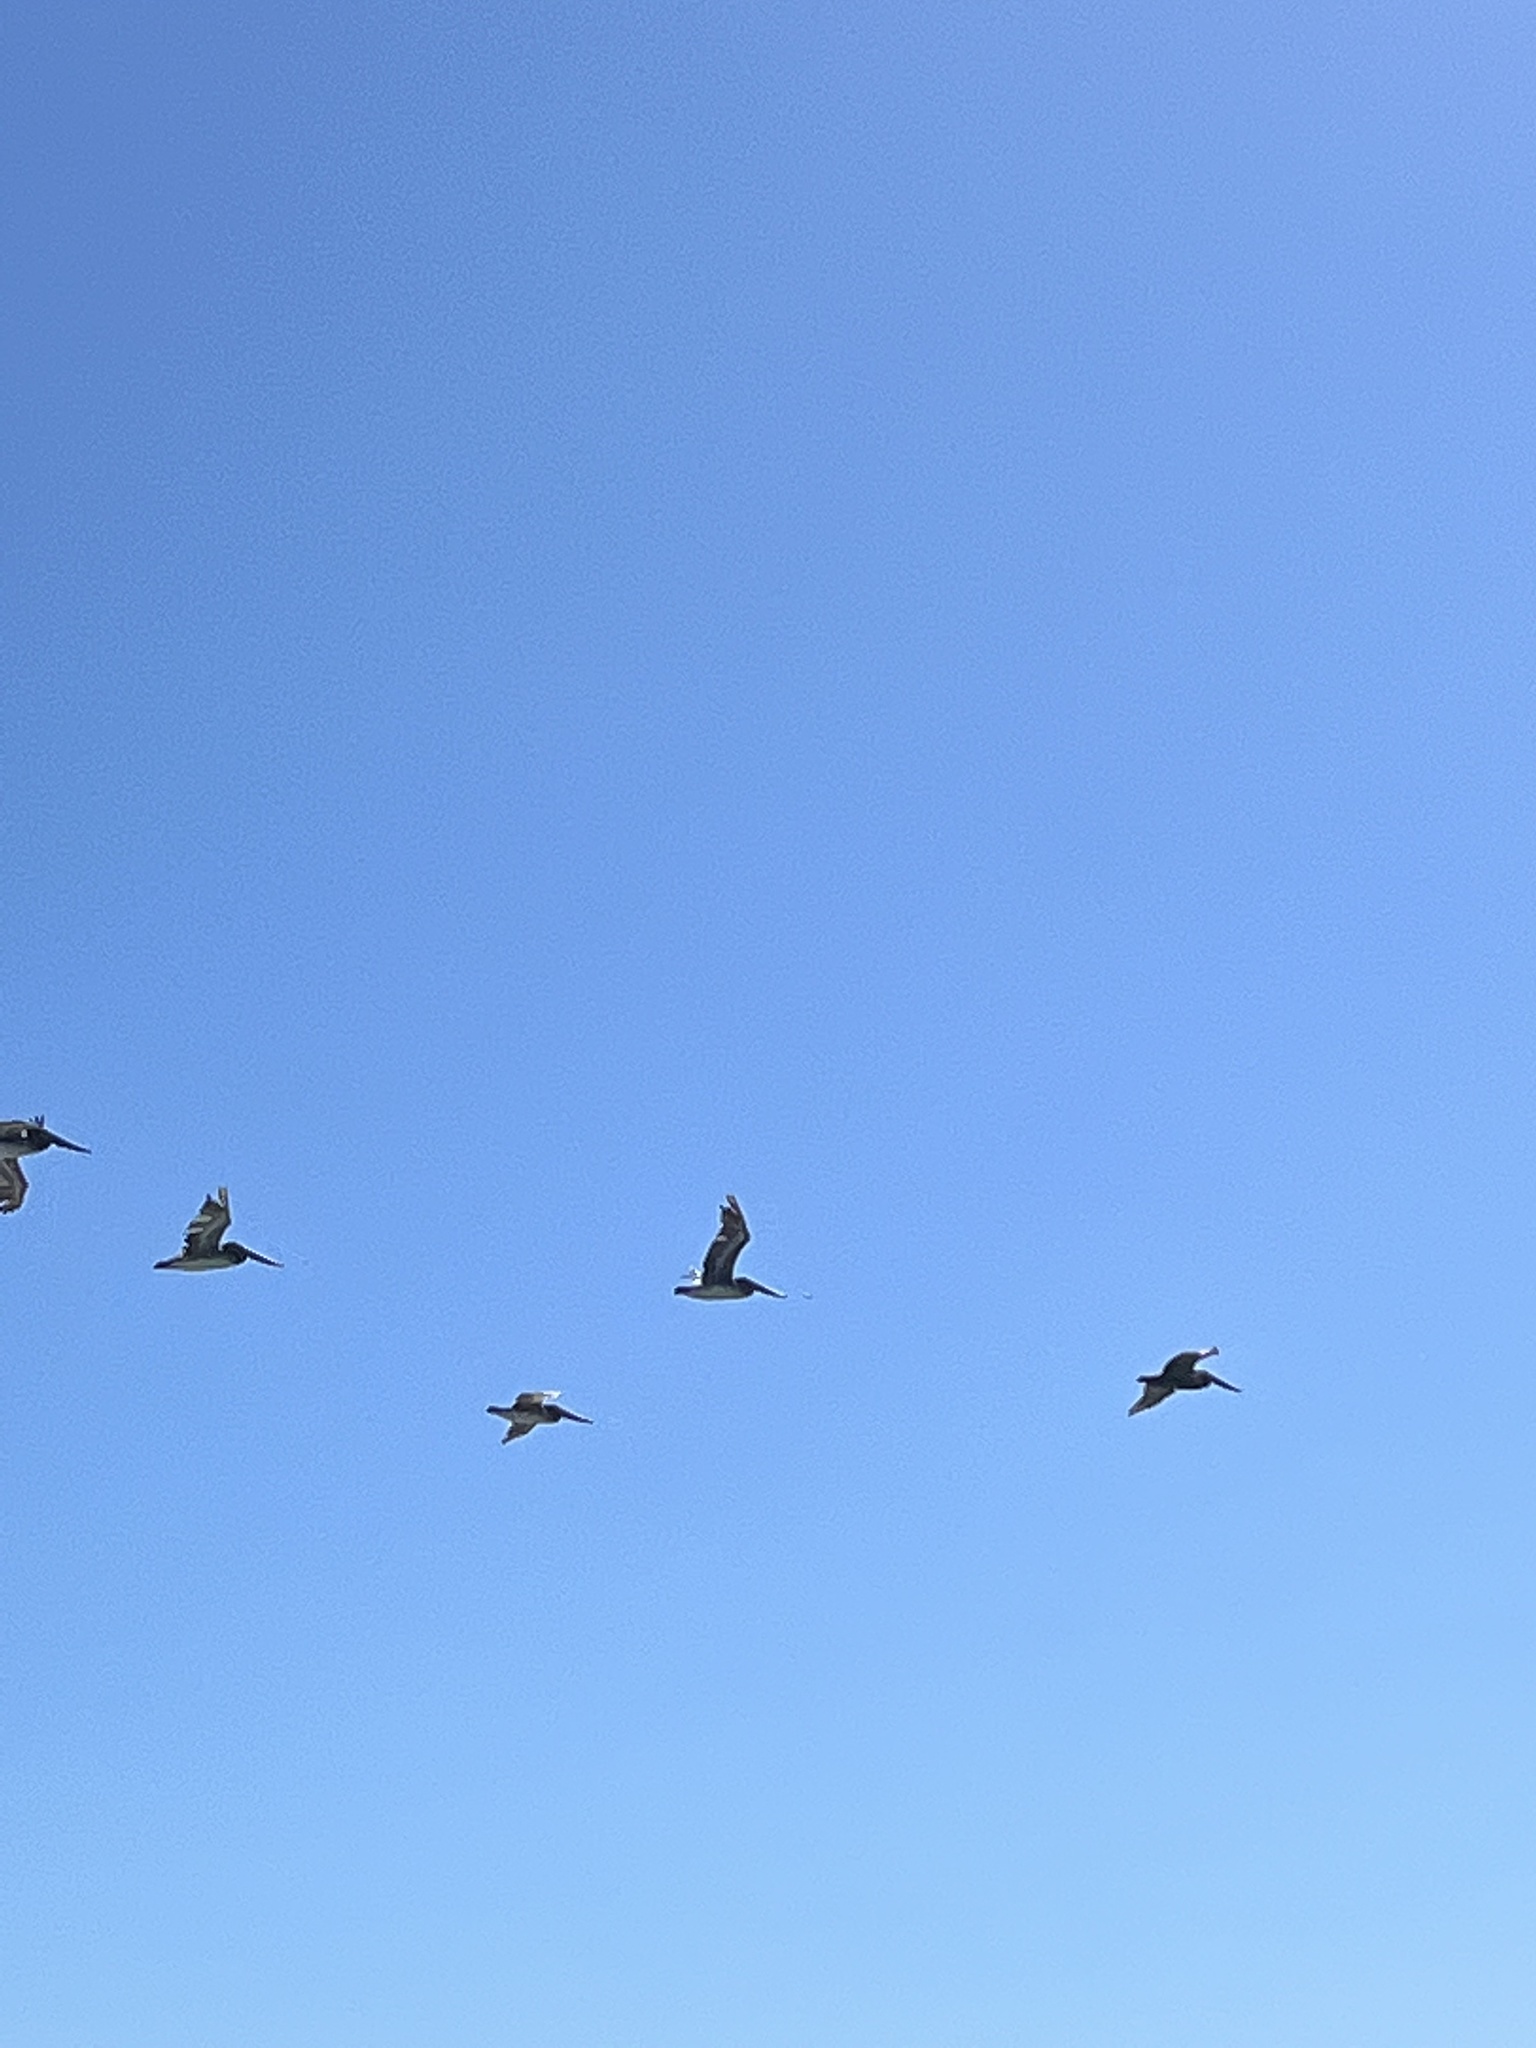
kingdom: Animalia
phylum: Chordata
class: Aves
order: Pelecaniformes
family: Pelecanidae
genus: Pelecanus
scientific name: Pelecanus occidentalis
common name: Brown pelican
